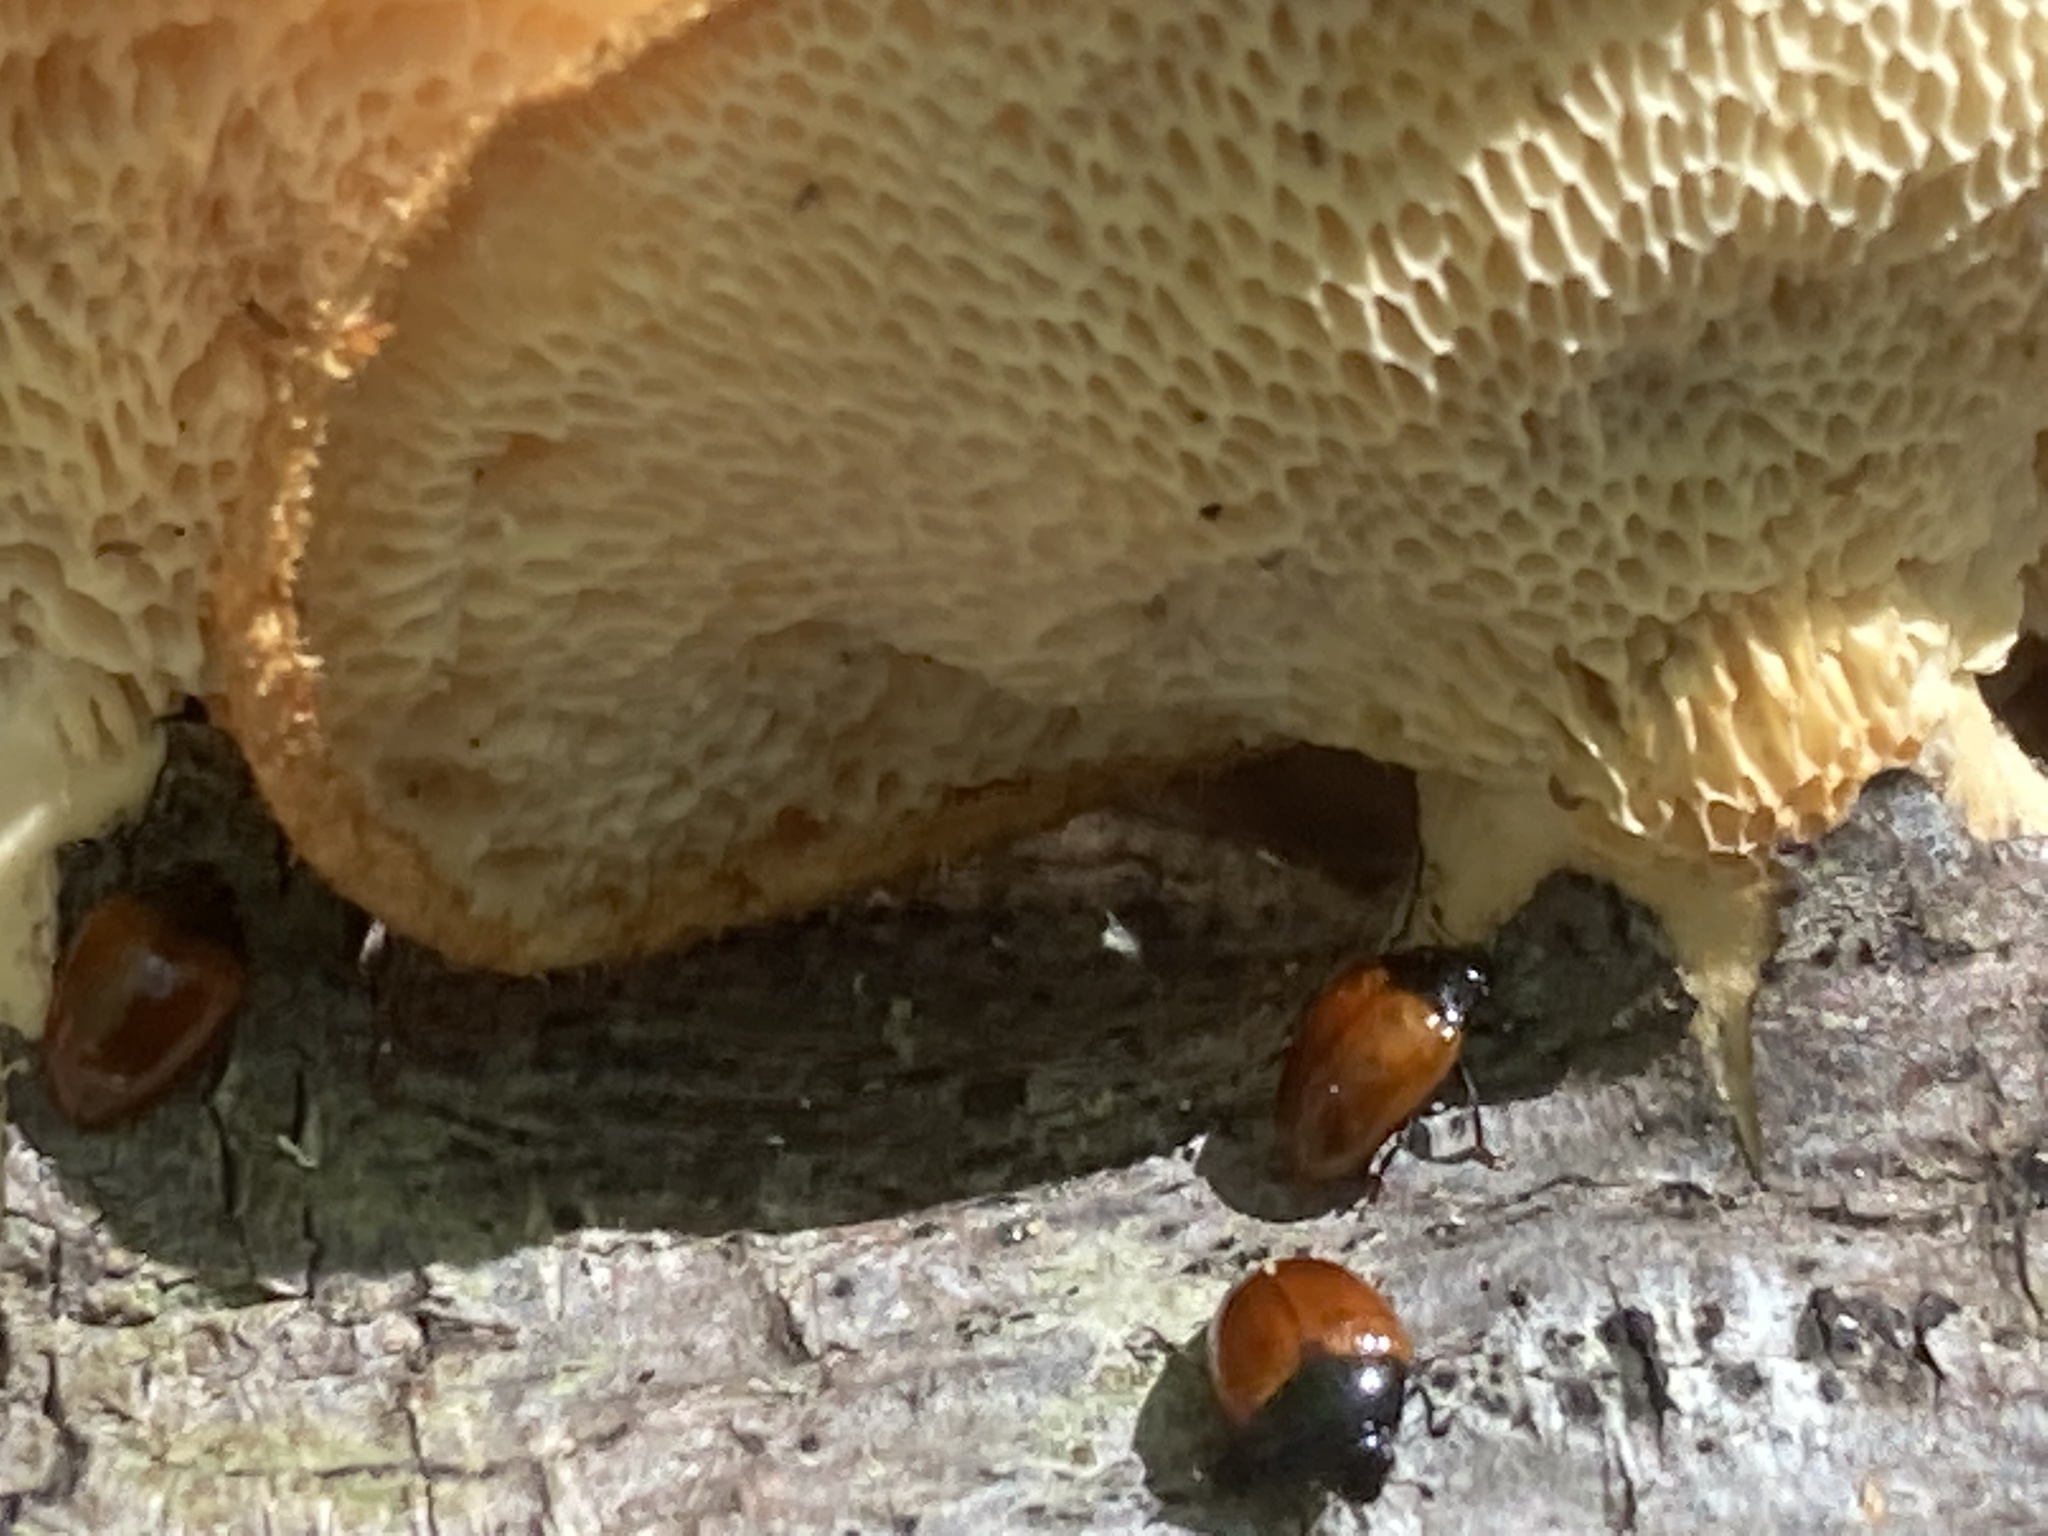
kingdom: Animalia
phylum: Arthropoda
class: Insecta
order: Coleoptera
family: Erotylidae
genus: Tritoma
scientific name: Tritoma sanguinipennis
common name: Red-winged tritoma
